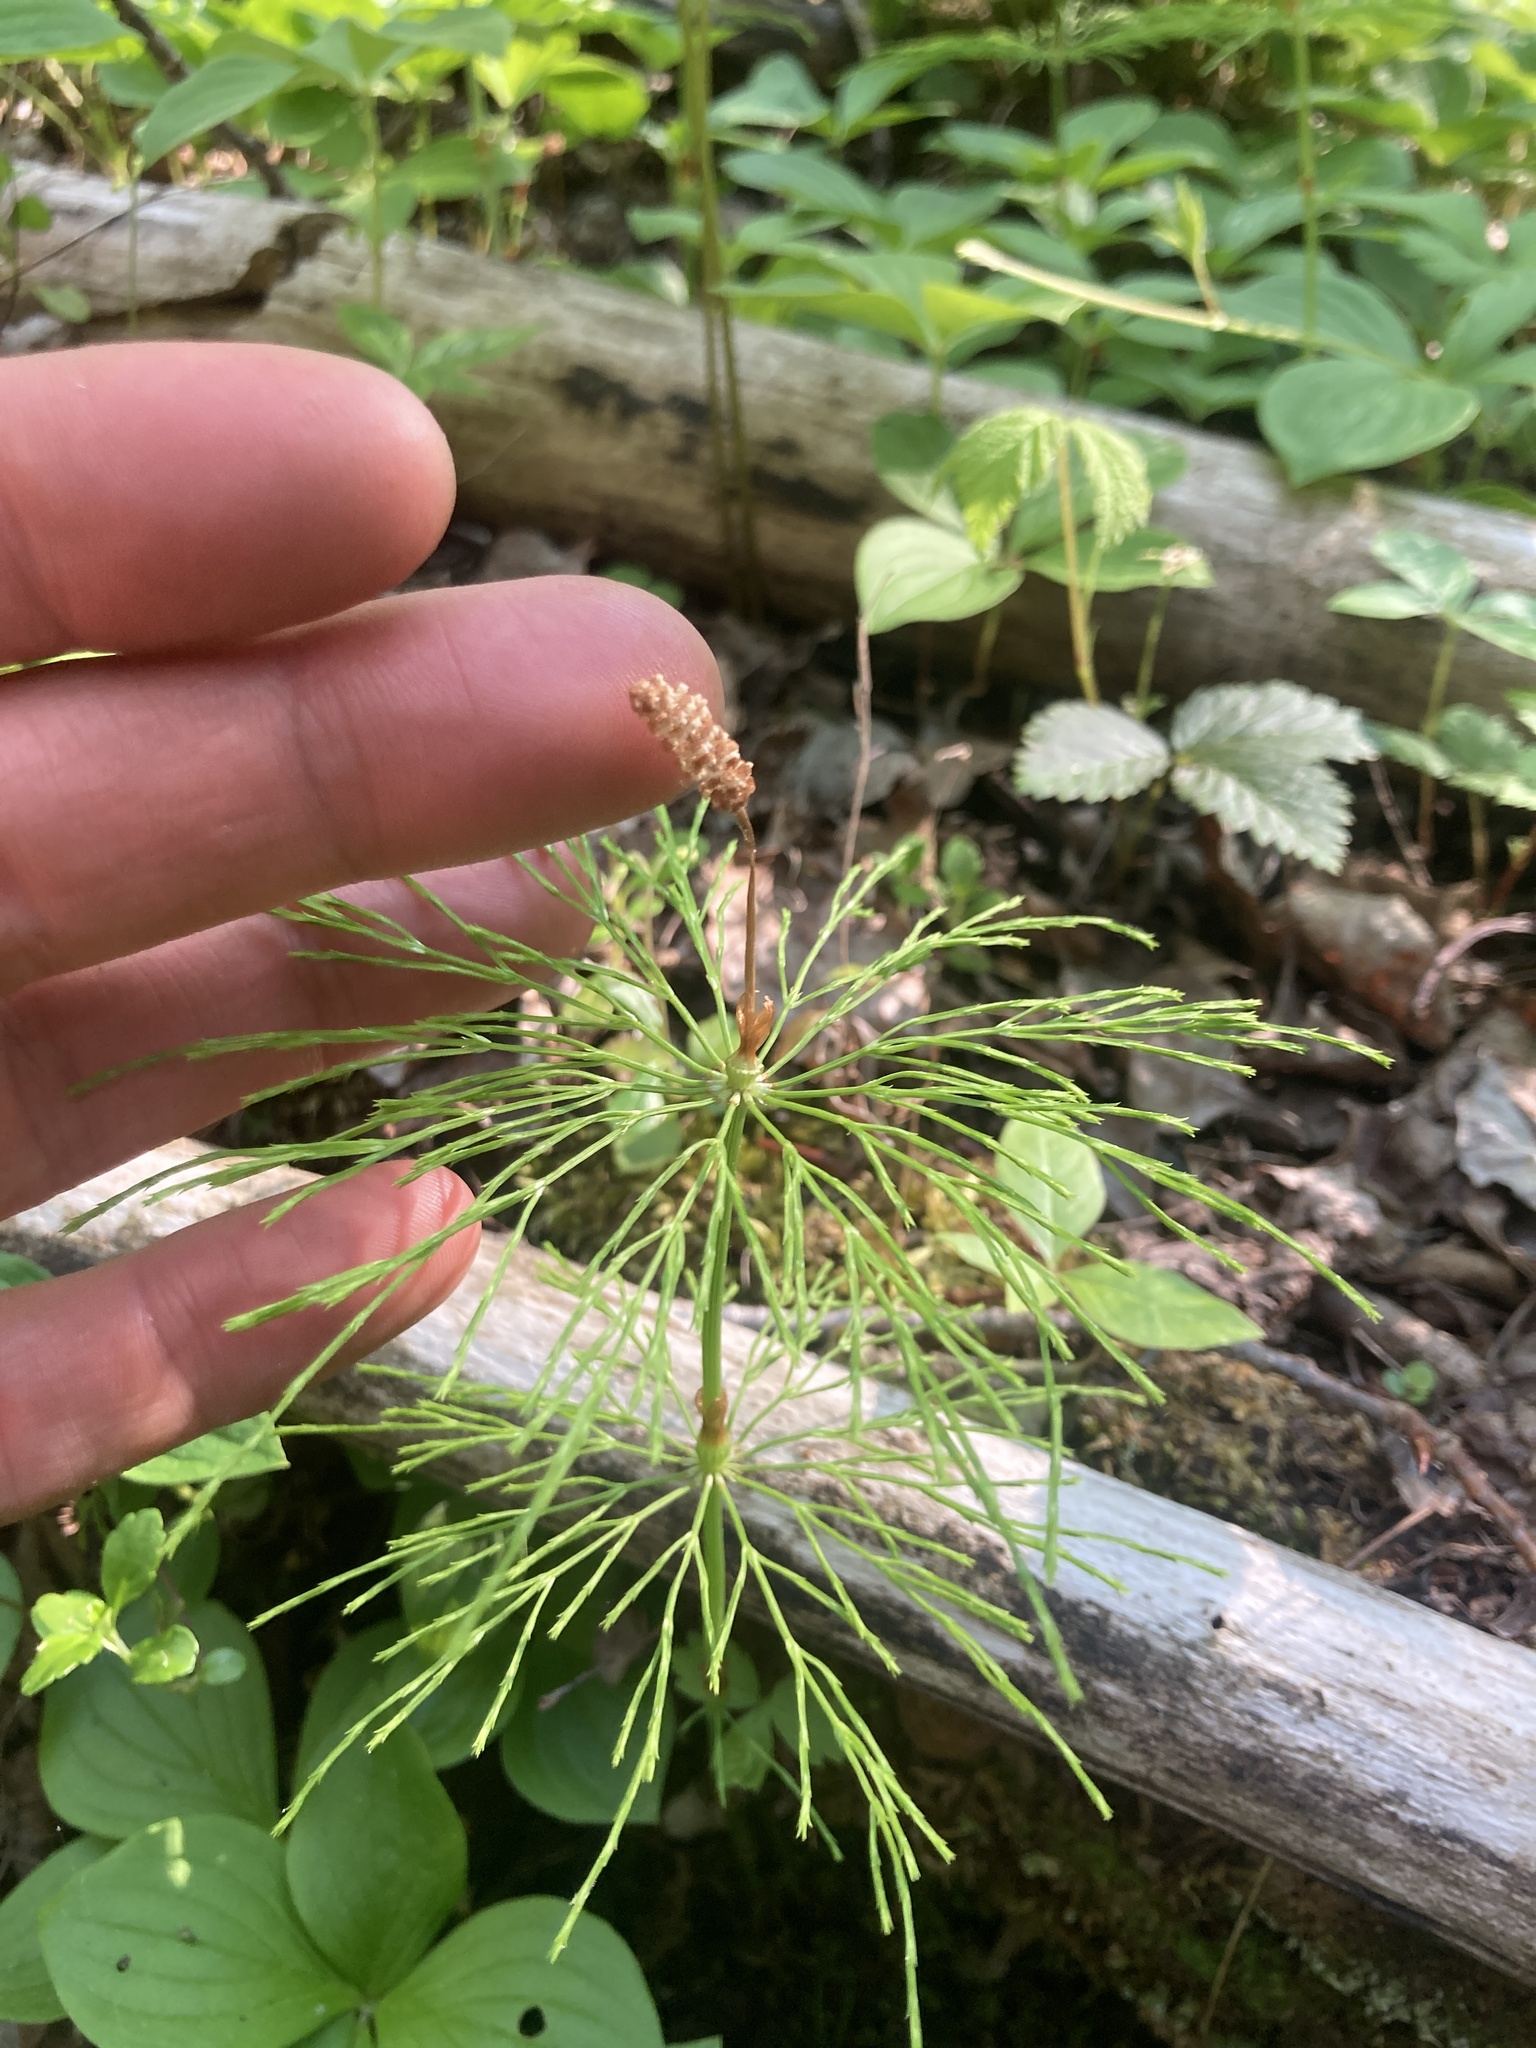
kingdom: Plantae
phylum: Tracheophyta
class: Polypodiopsida
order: Equisetales
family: Equisetaceae
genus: Equisetum
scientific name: Equisetum sylvaticum
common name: Wood horsetail
